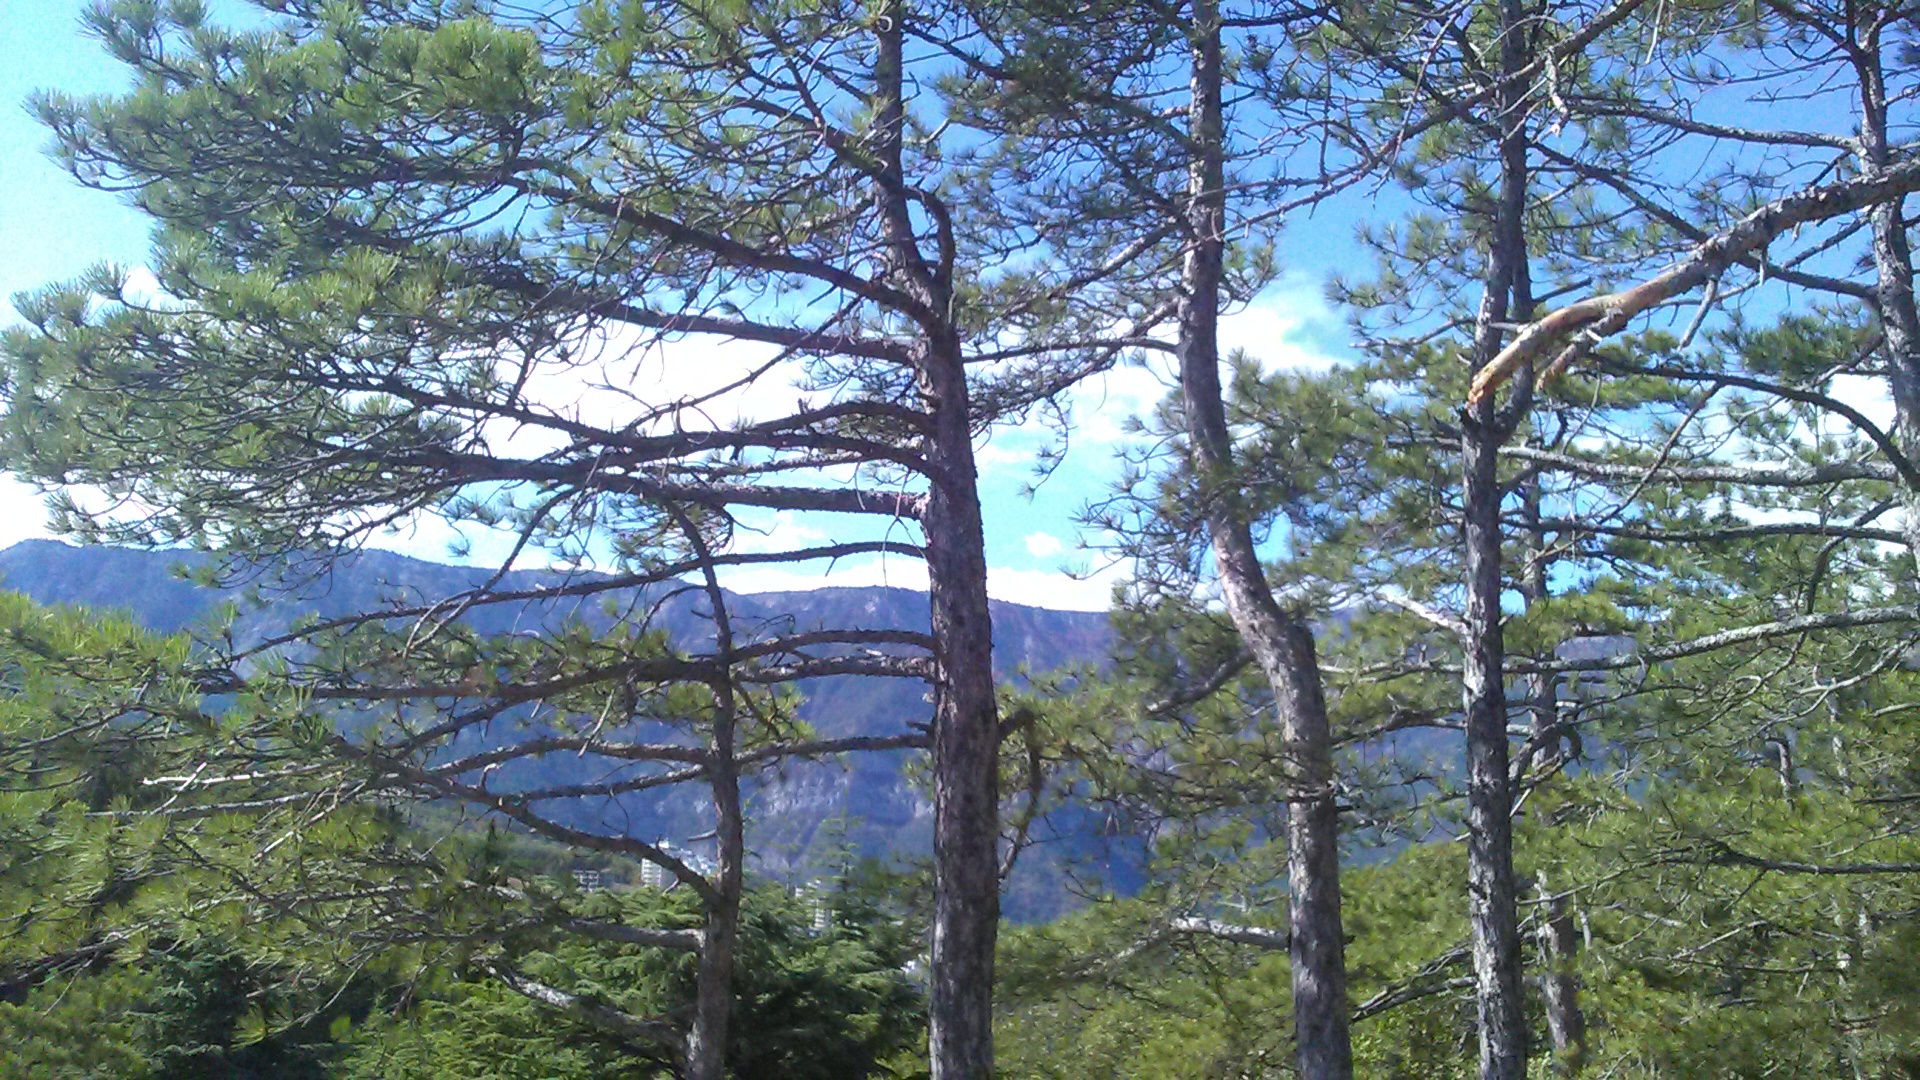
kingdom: Plantae
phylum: Tracheophyta
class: Pinopsida
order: Pinales
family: Pinaceae
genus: Pinus
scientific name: Pinus nigra
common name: Austrian pine
